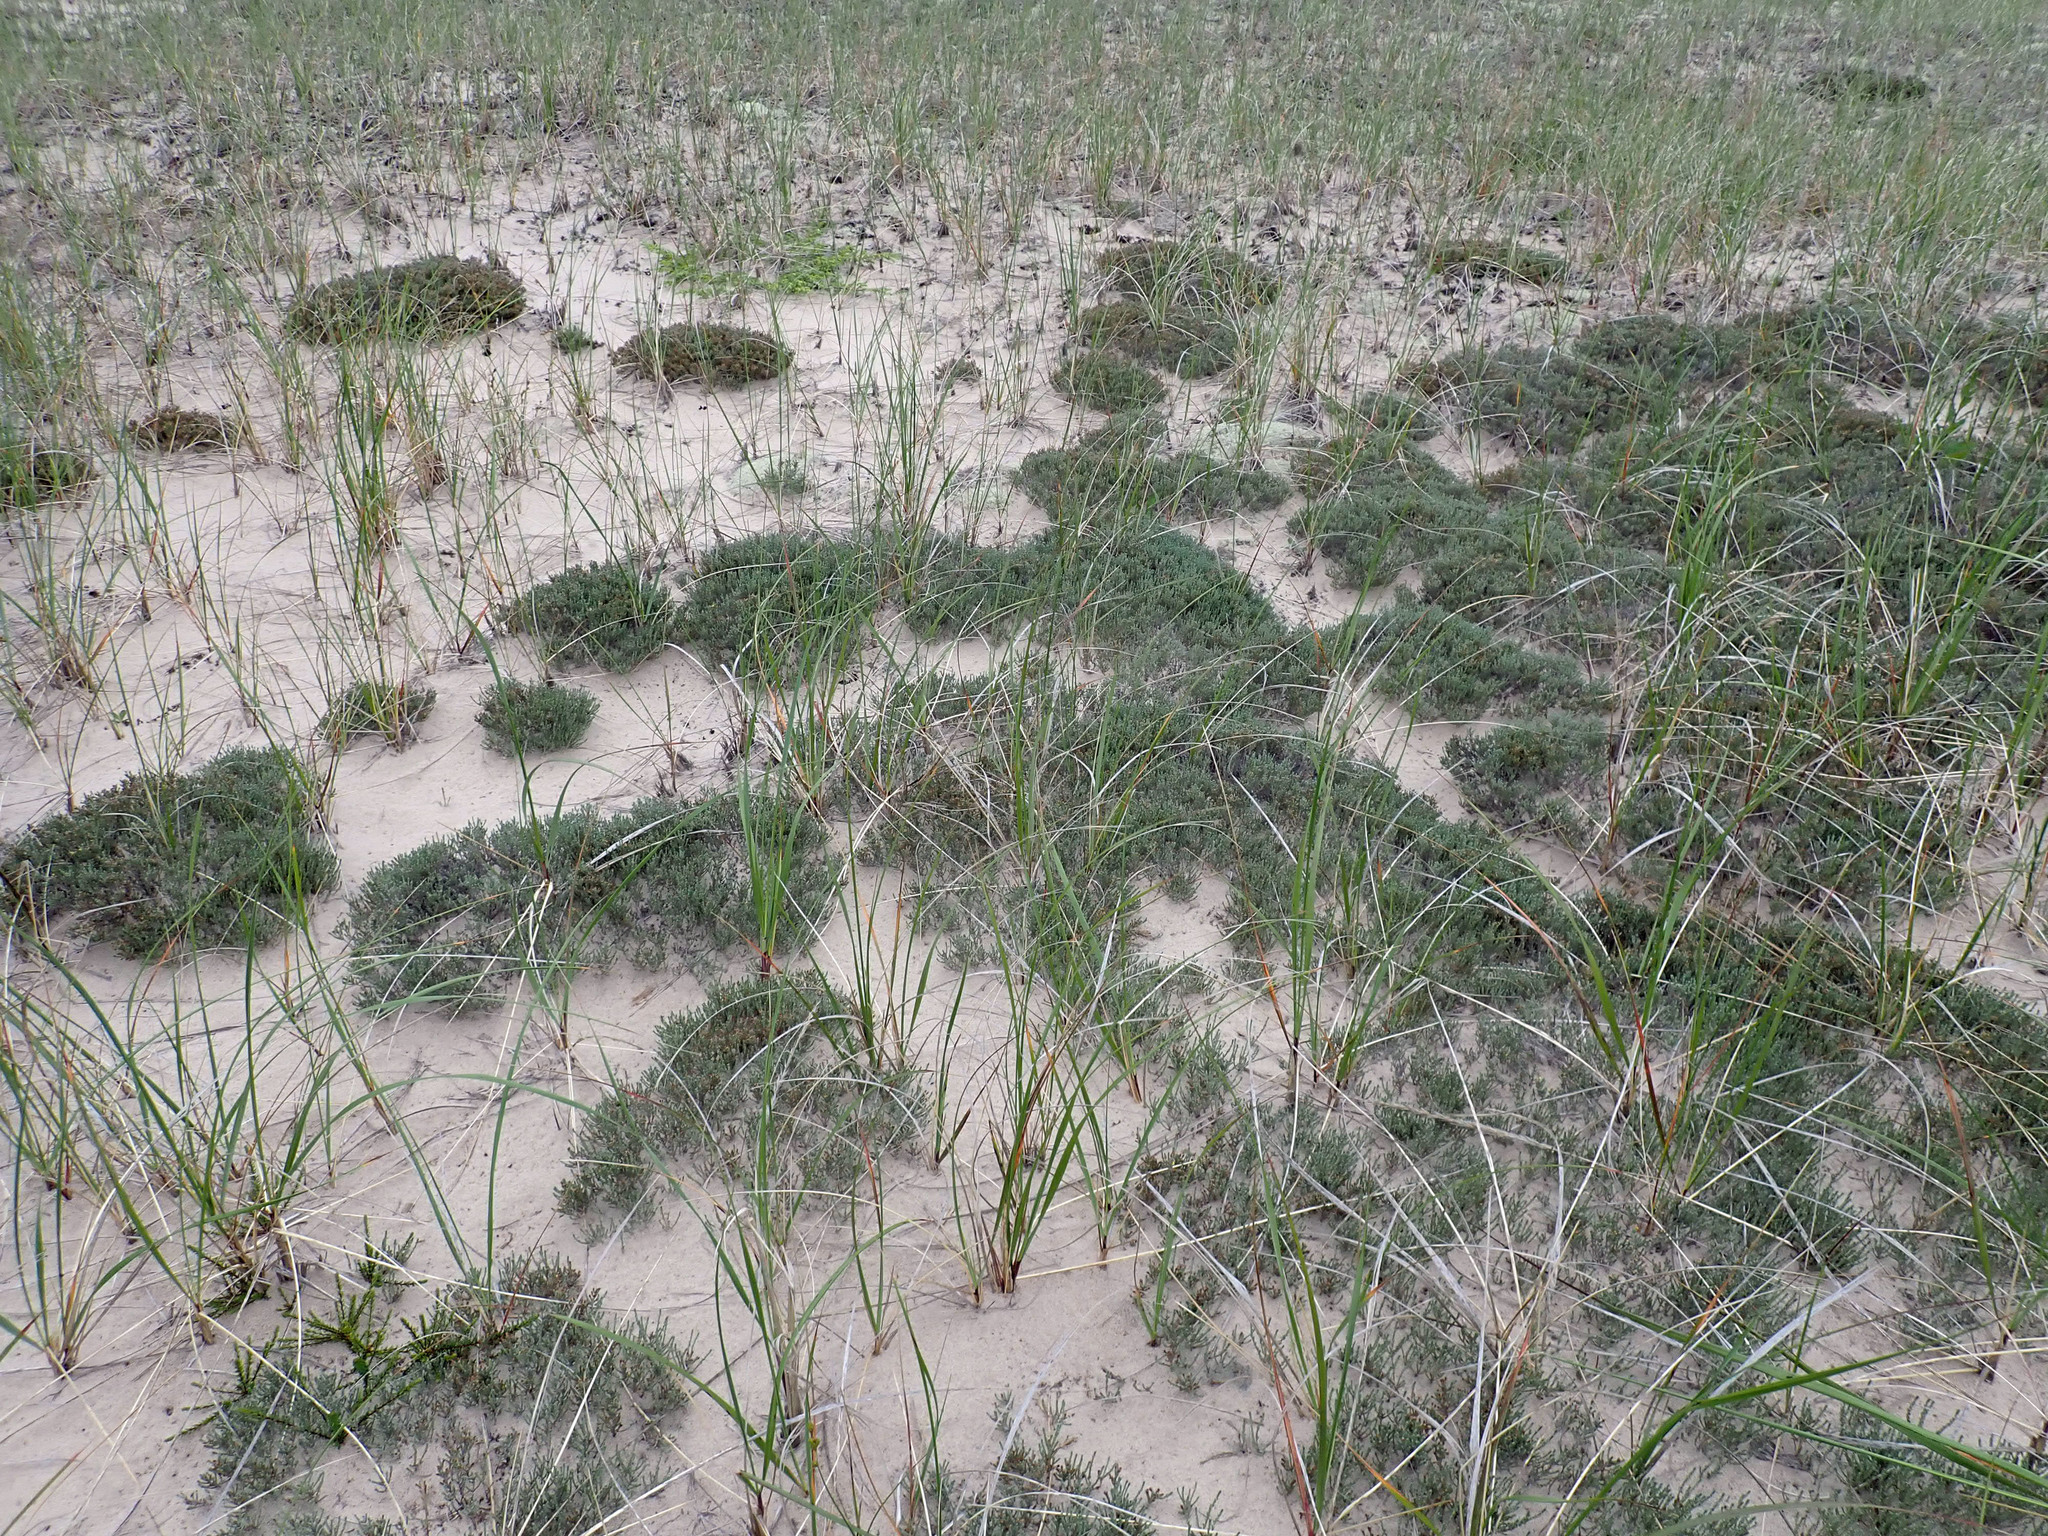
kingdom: Plantae
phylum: Tracheophyta
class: Magnoliopsida
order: Malvales
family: Cistaceae
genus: Hudsonia
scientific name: Hudsonia tomentosa
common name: Beach-heath
